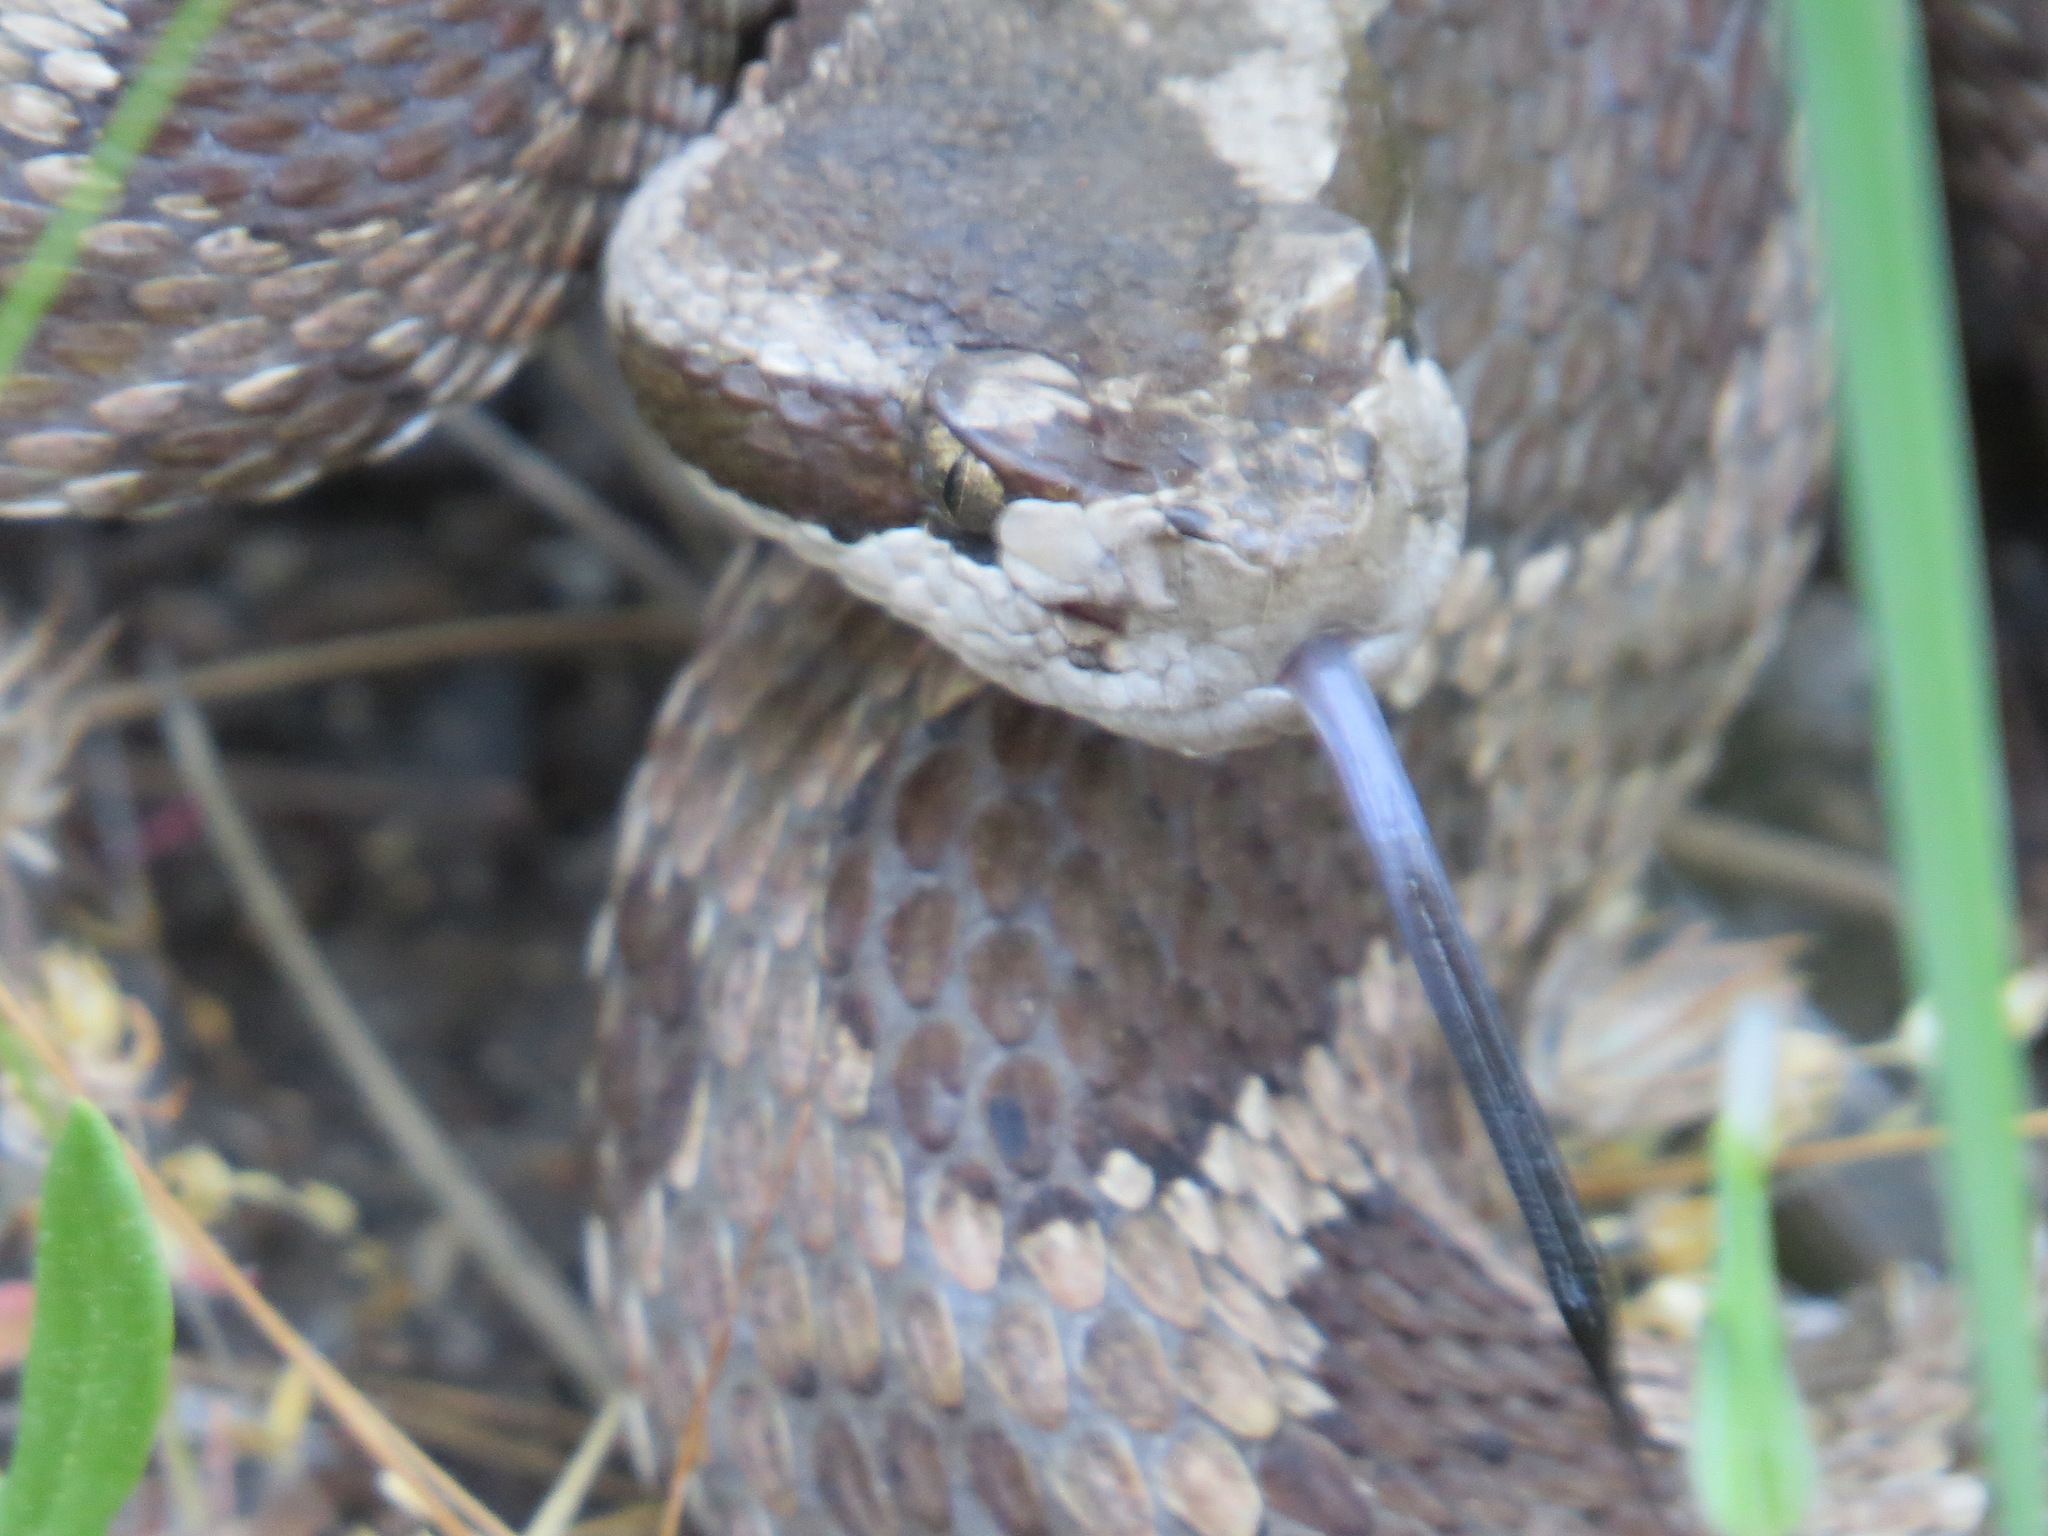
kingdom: Animalia
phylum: Chordata
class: Squamata
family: Viperidae
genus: Crotalus
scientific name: Crotalus oreganus
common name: Abyssus
